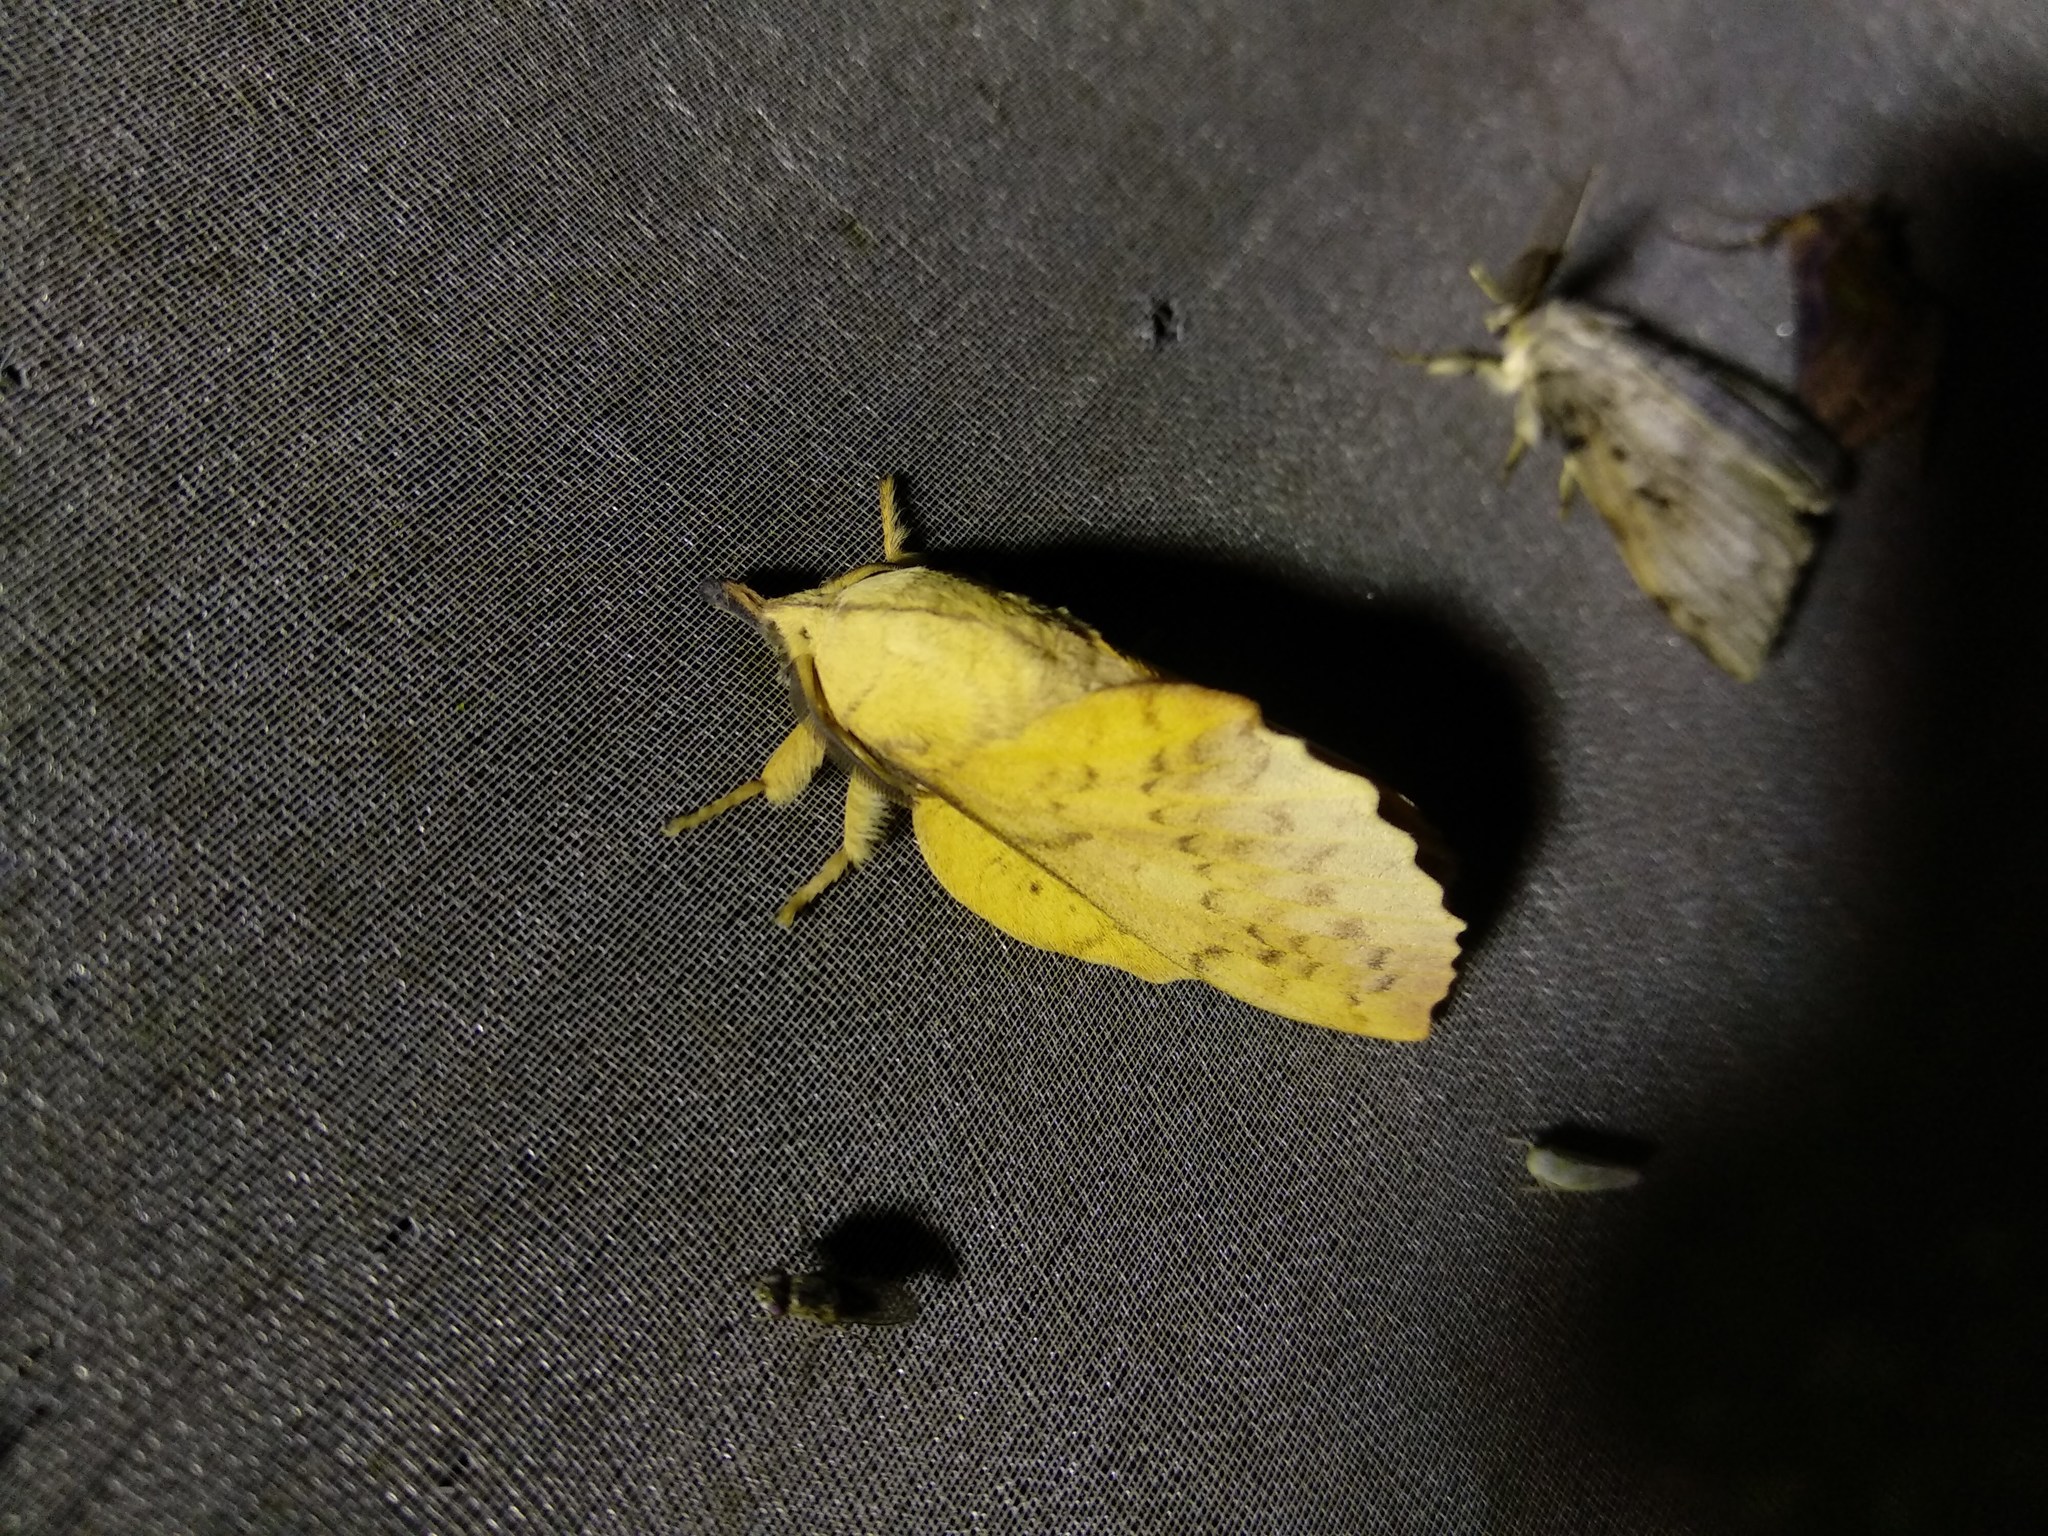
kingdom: Animalia
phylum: Arthropoda
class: Insecta
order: Lepidoptera
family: Lasiocampidae
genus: Gastropacha
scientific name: Gastropacha populifolia
